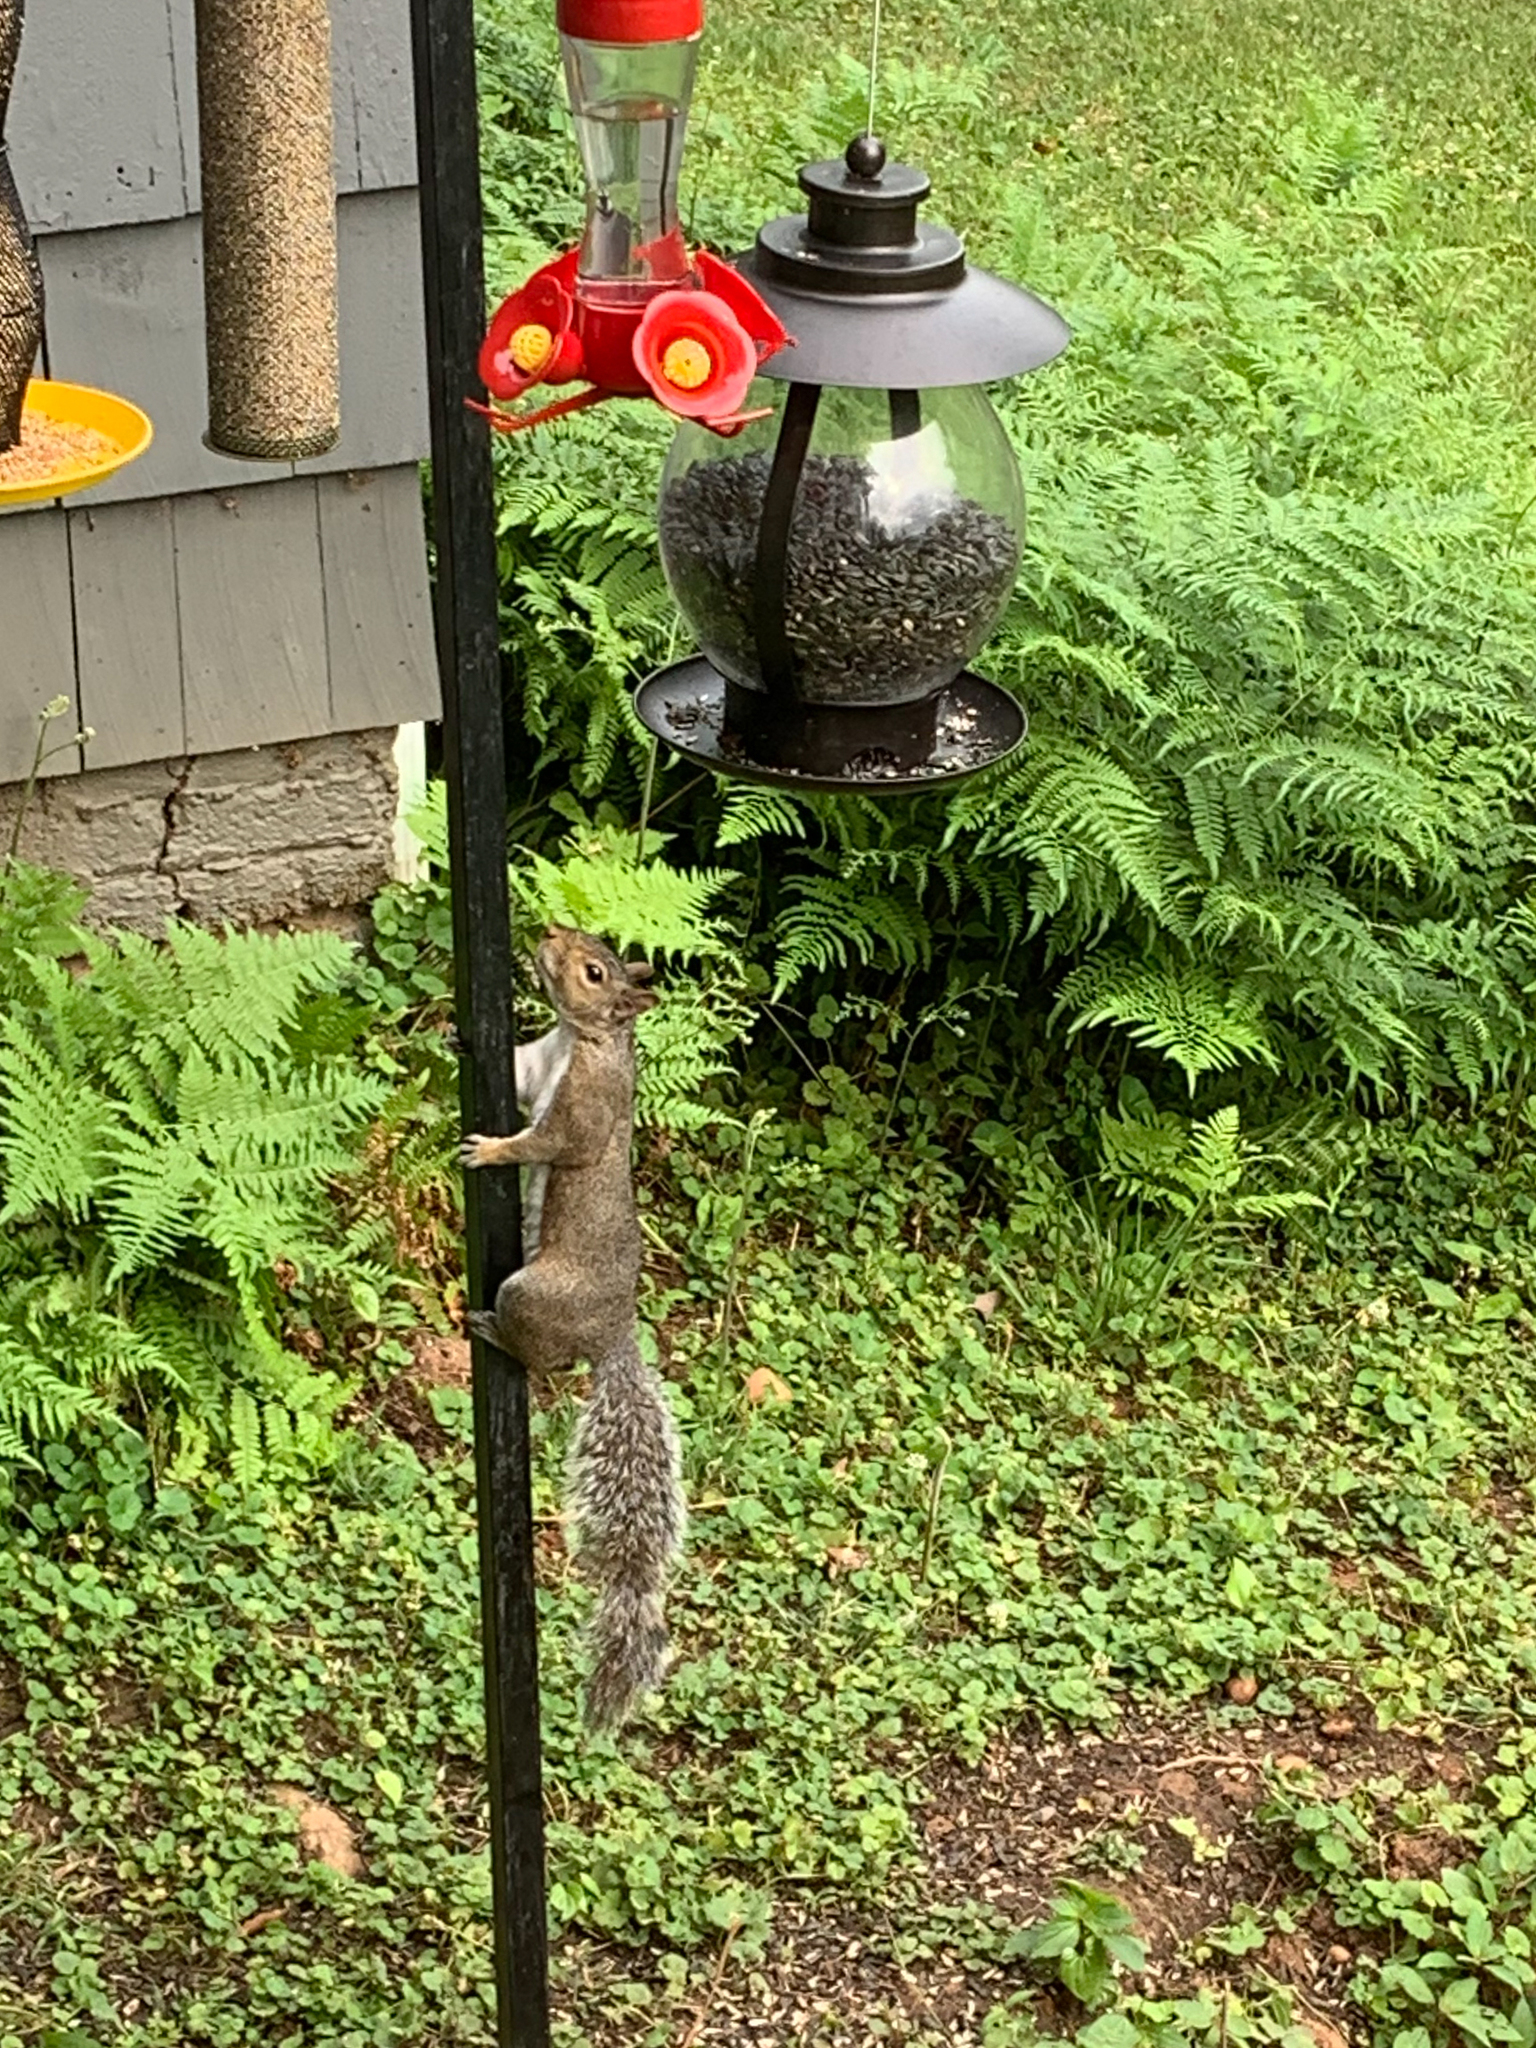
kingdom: Animalia
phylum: Chordata
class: Mammalia
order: Rodentia
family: Sciuridae
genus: Sciurus
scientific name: Sciurus carolinensis
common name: Eastern gray squirrel
